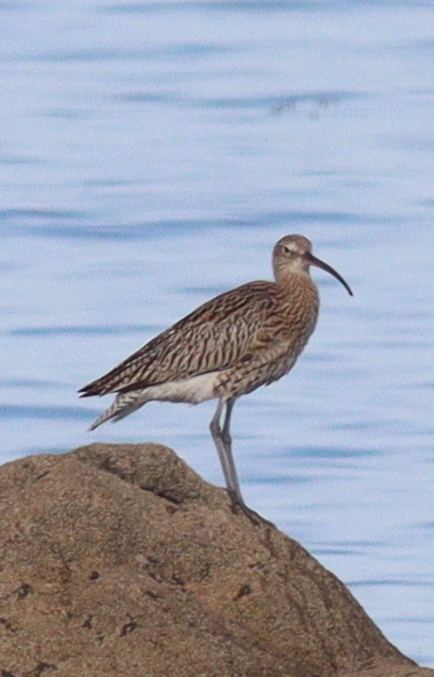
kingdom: Animalia
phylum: Chordata
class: Aves
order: Charadriiformes
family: Scolopacidae
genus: Numenius
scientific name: Numenius arquata
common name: Eurasian curlew
